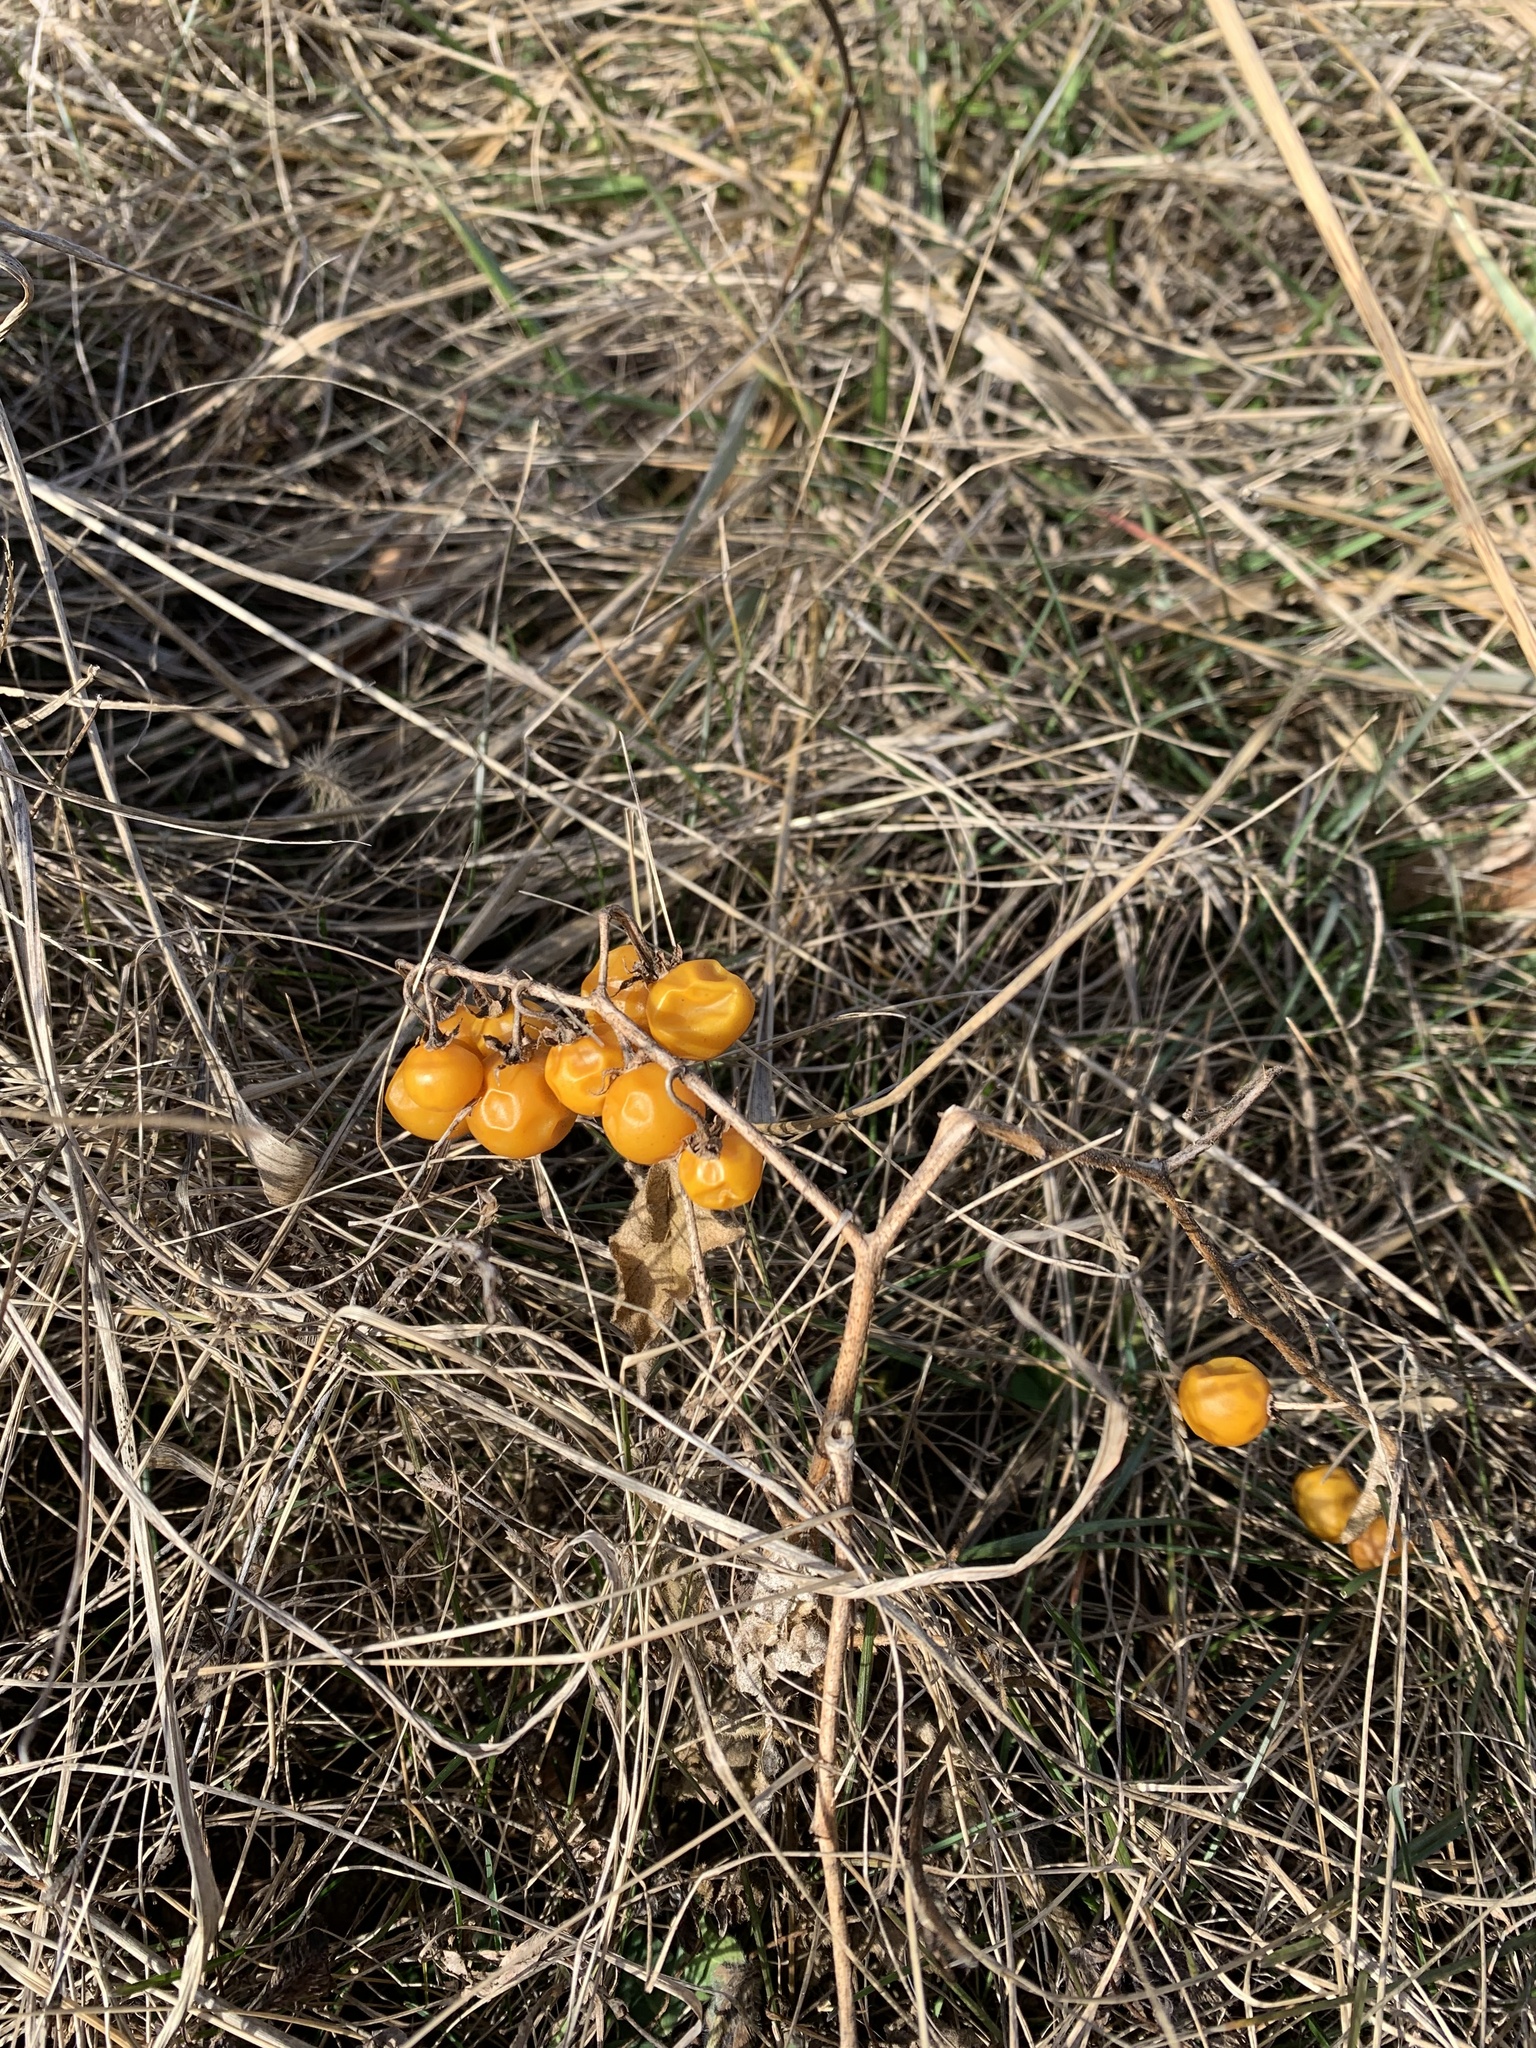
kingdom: Plantae
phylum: Tracheophyta
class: Magnoliopsida
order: Solanales
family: Solanaceae
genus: Solanum
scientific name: Solanum carolinense
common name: Horse-nettle
